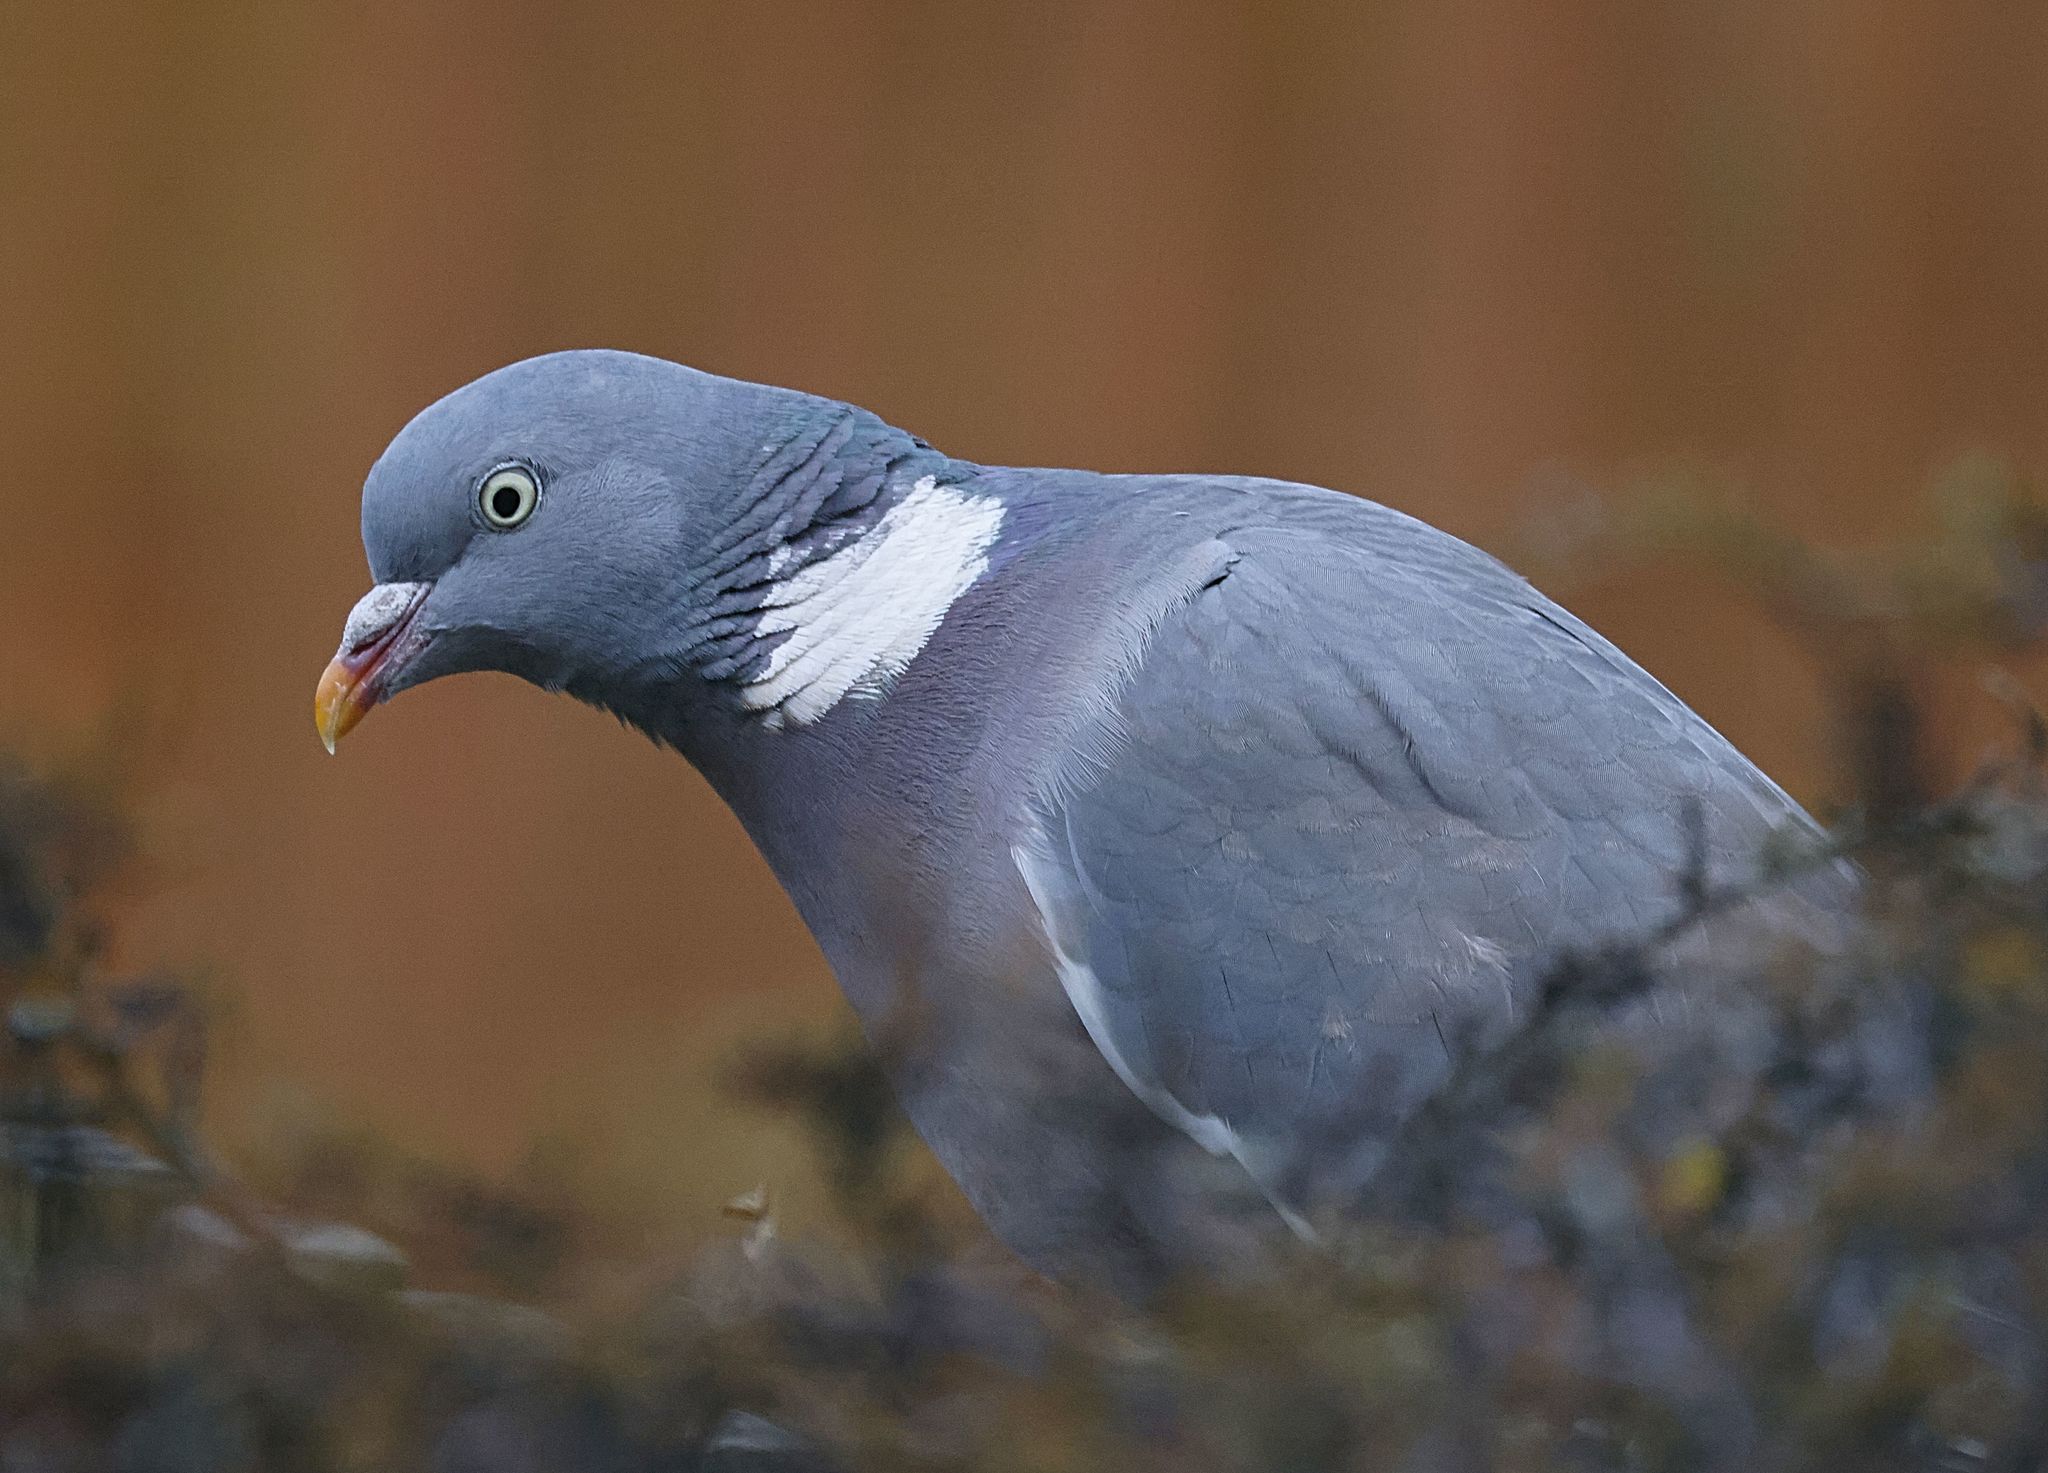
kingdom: Animalia
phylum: Chordata
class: Aves
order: Columbiformes
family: Columbidae
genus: Columba
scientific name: Columba palumbus
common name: Common wood pigeon
